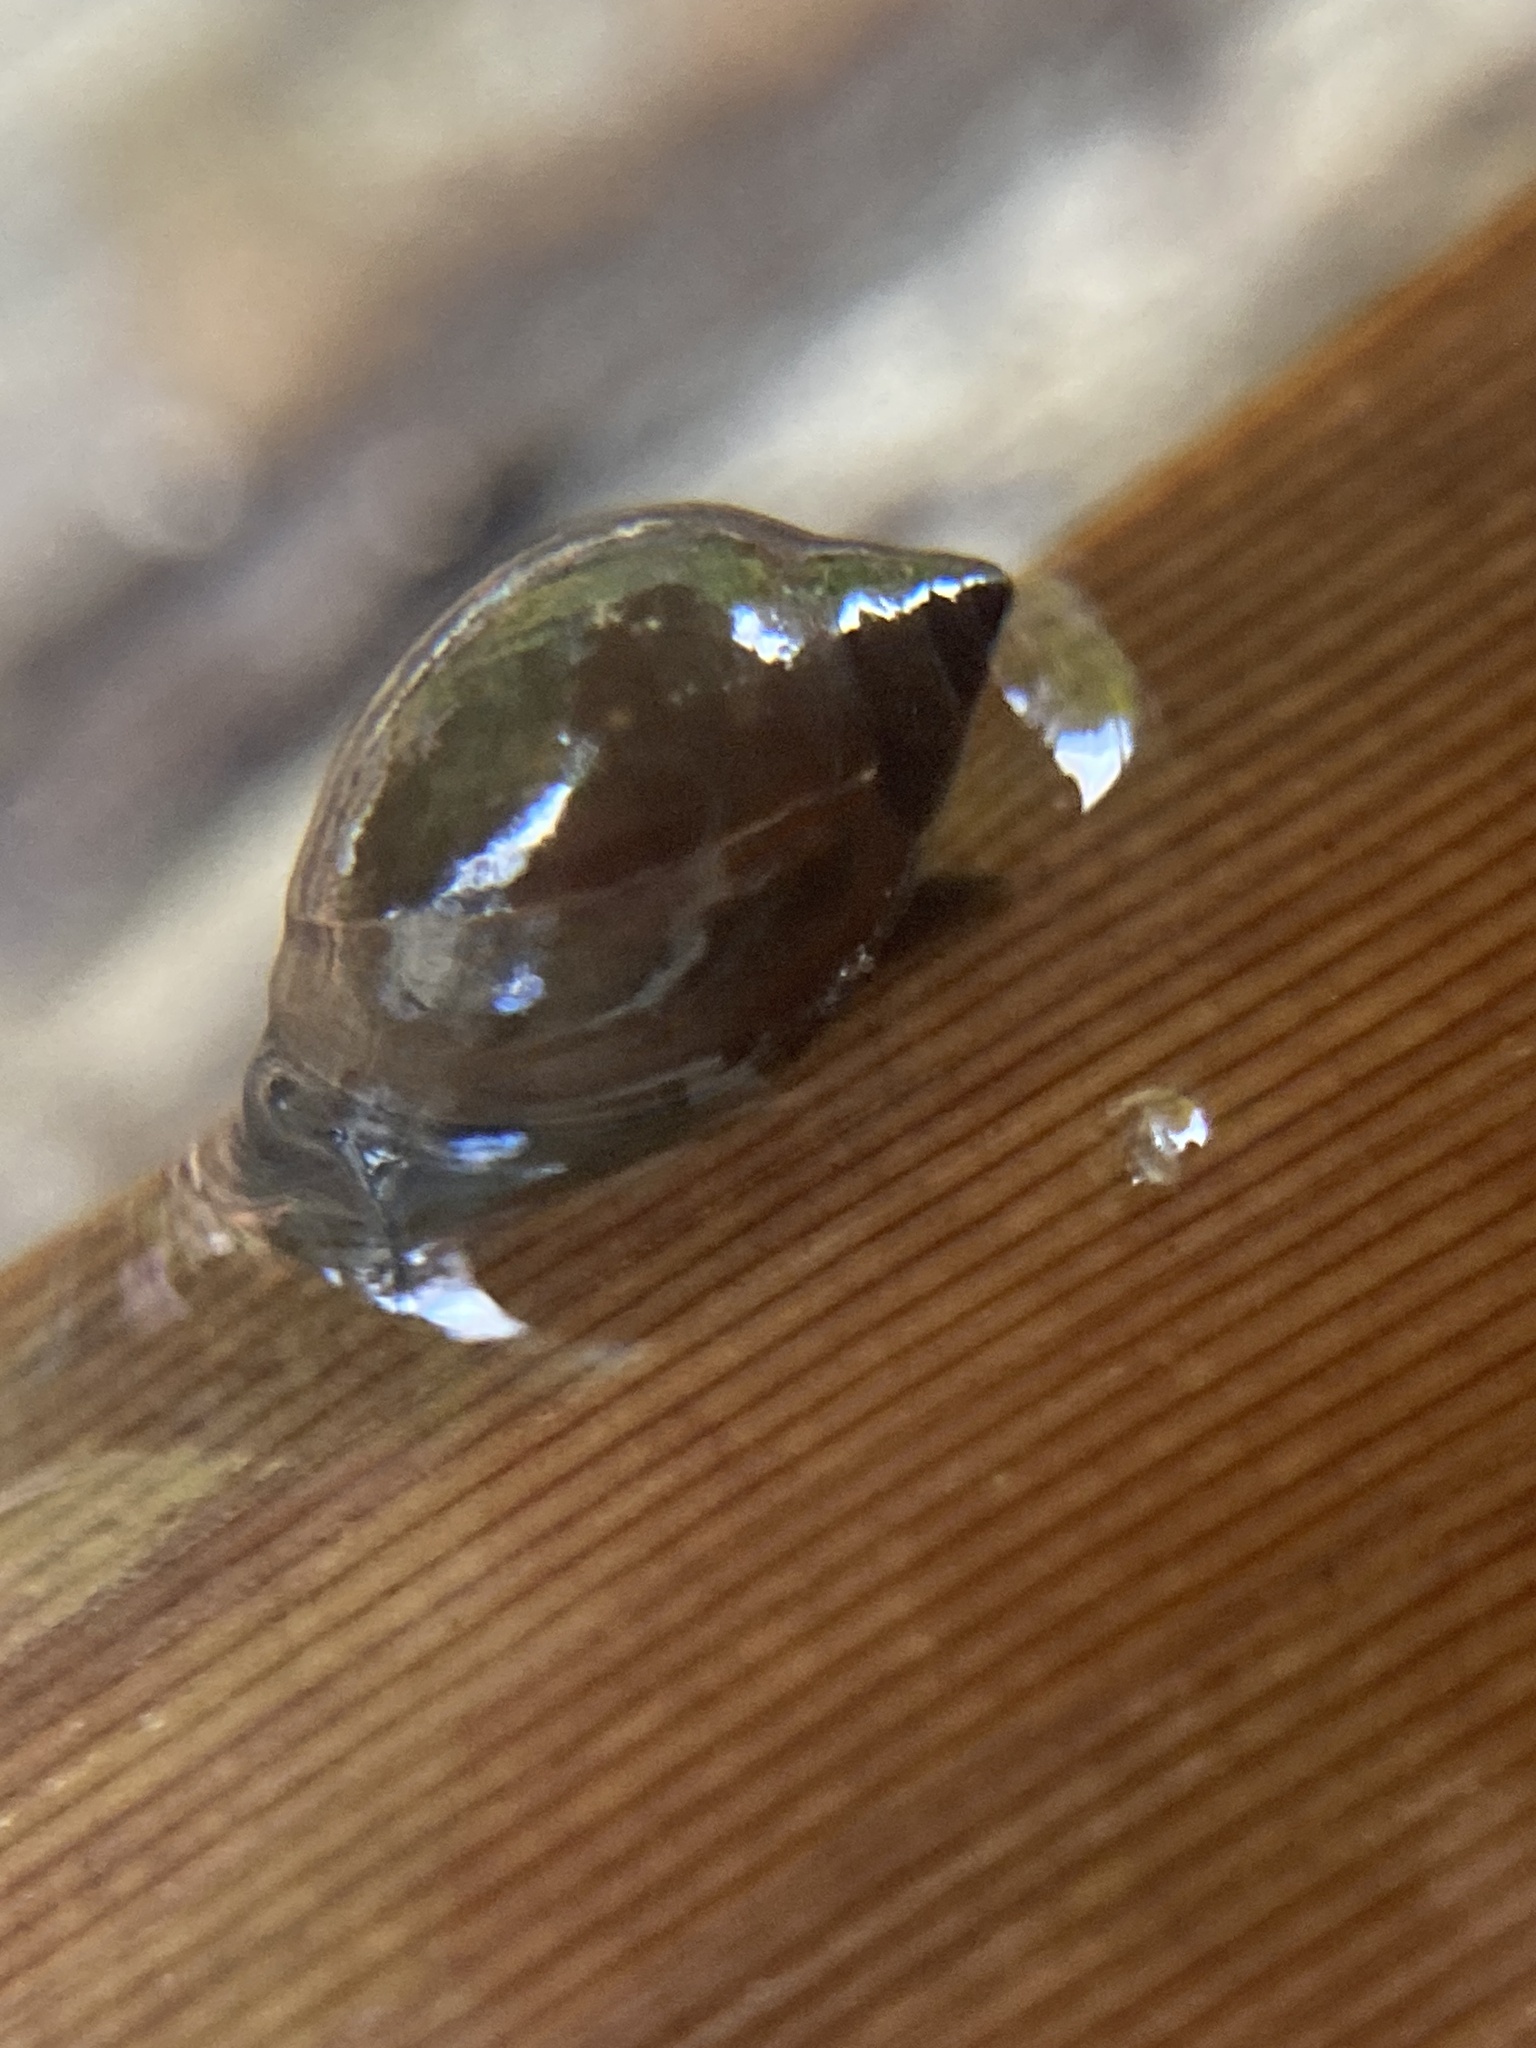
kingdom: Animalia
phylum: Mollusca
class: Gastropoda
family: Physidae
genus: Physella
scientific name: Physella acuta
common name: European physa
